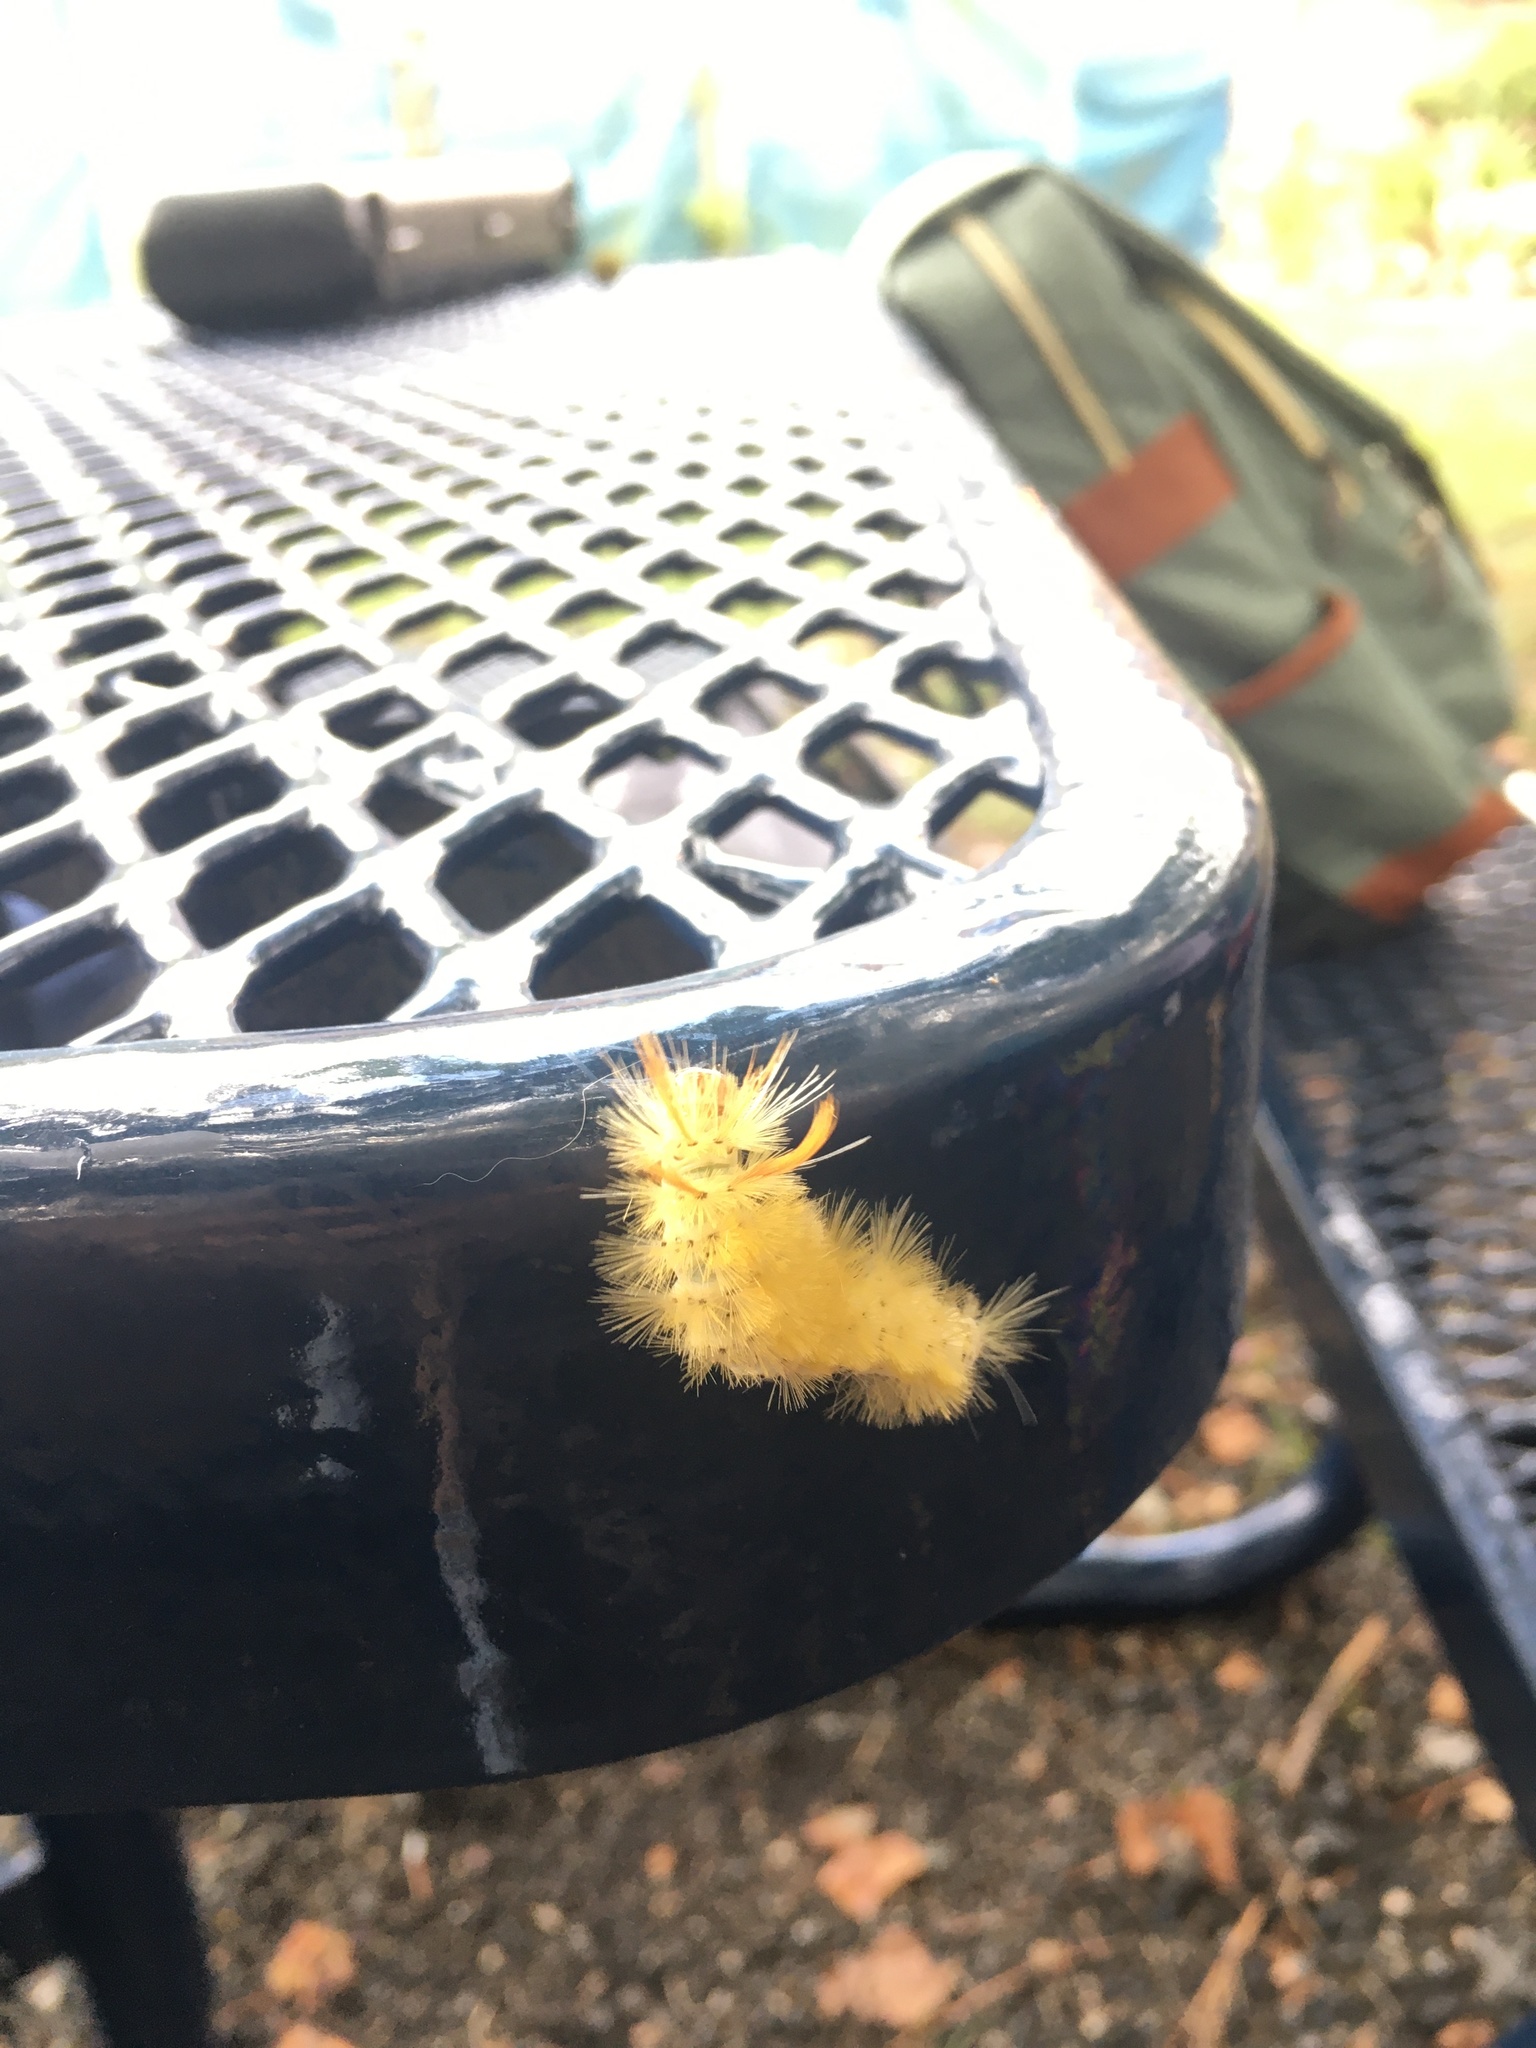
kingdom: Animalia
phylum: Arthropoda
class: Insecta
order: Lepidoptera
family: Erebidae
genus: Halysidota
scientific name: Halysidota harrisii
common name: Sycamore tussock moth
